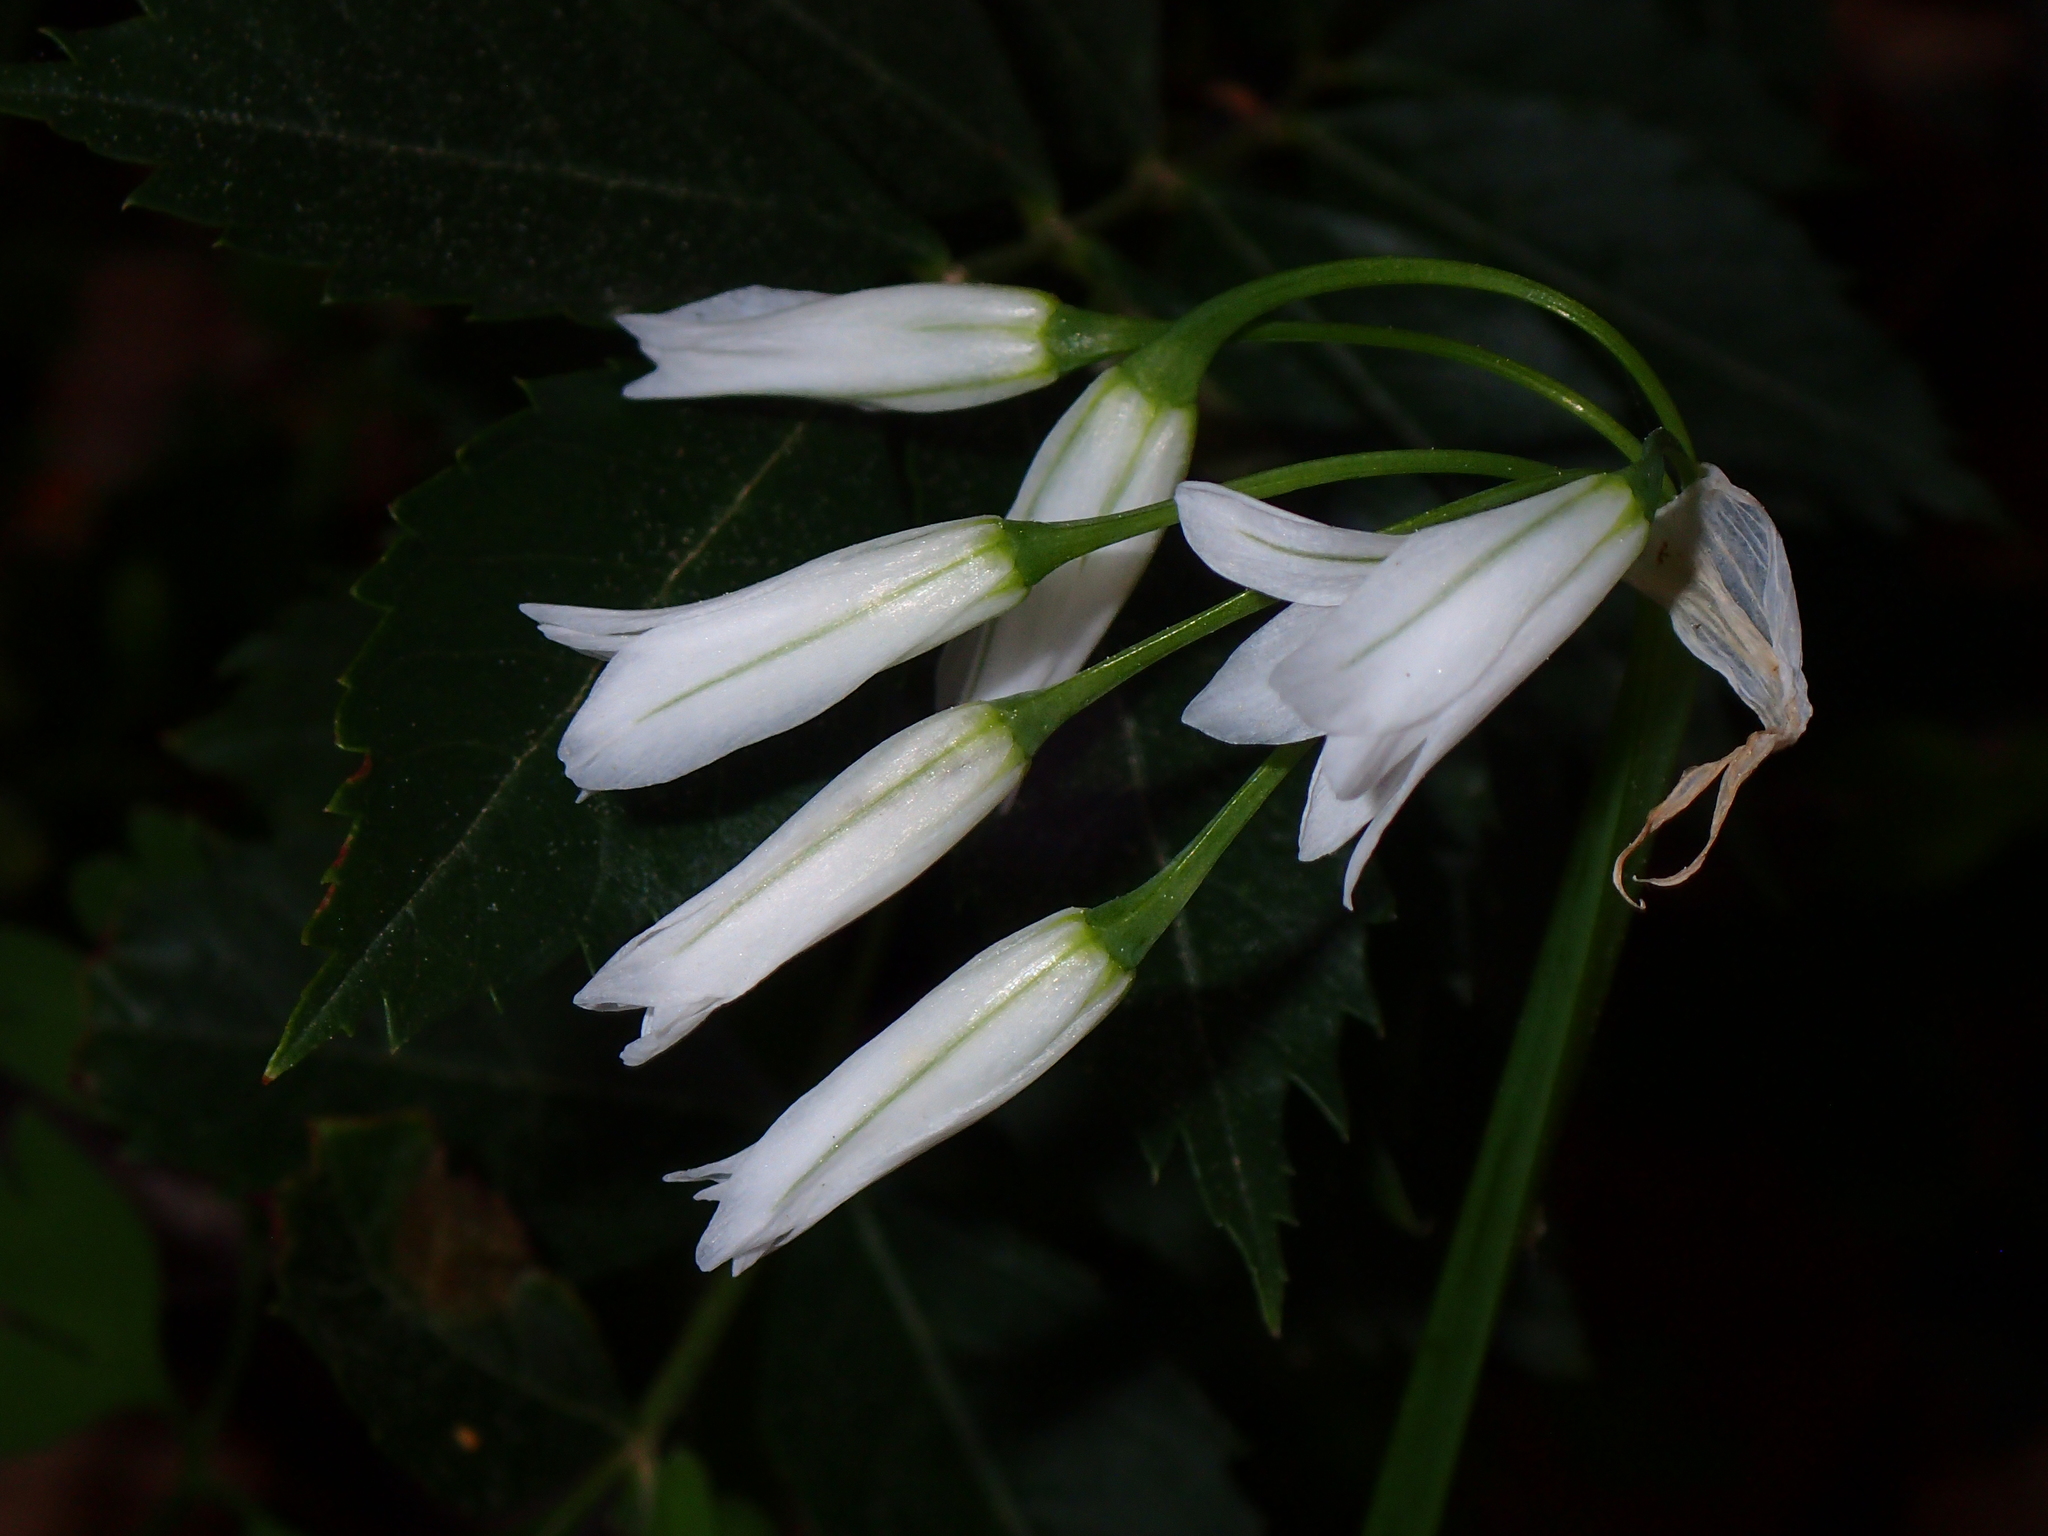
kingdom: Plantae
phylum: Tracheophyta
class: Liliopsida
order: Asparagales
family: Amaryllidaceae
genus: Allium
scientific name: Allium triquetrum
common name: Three-cornered garlic
